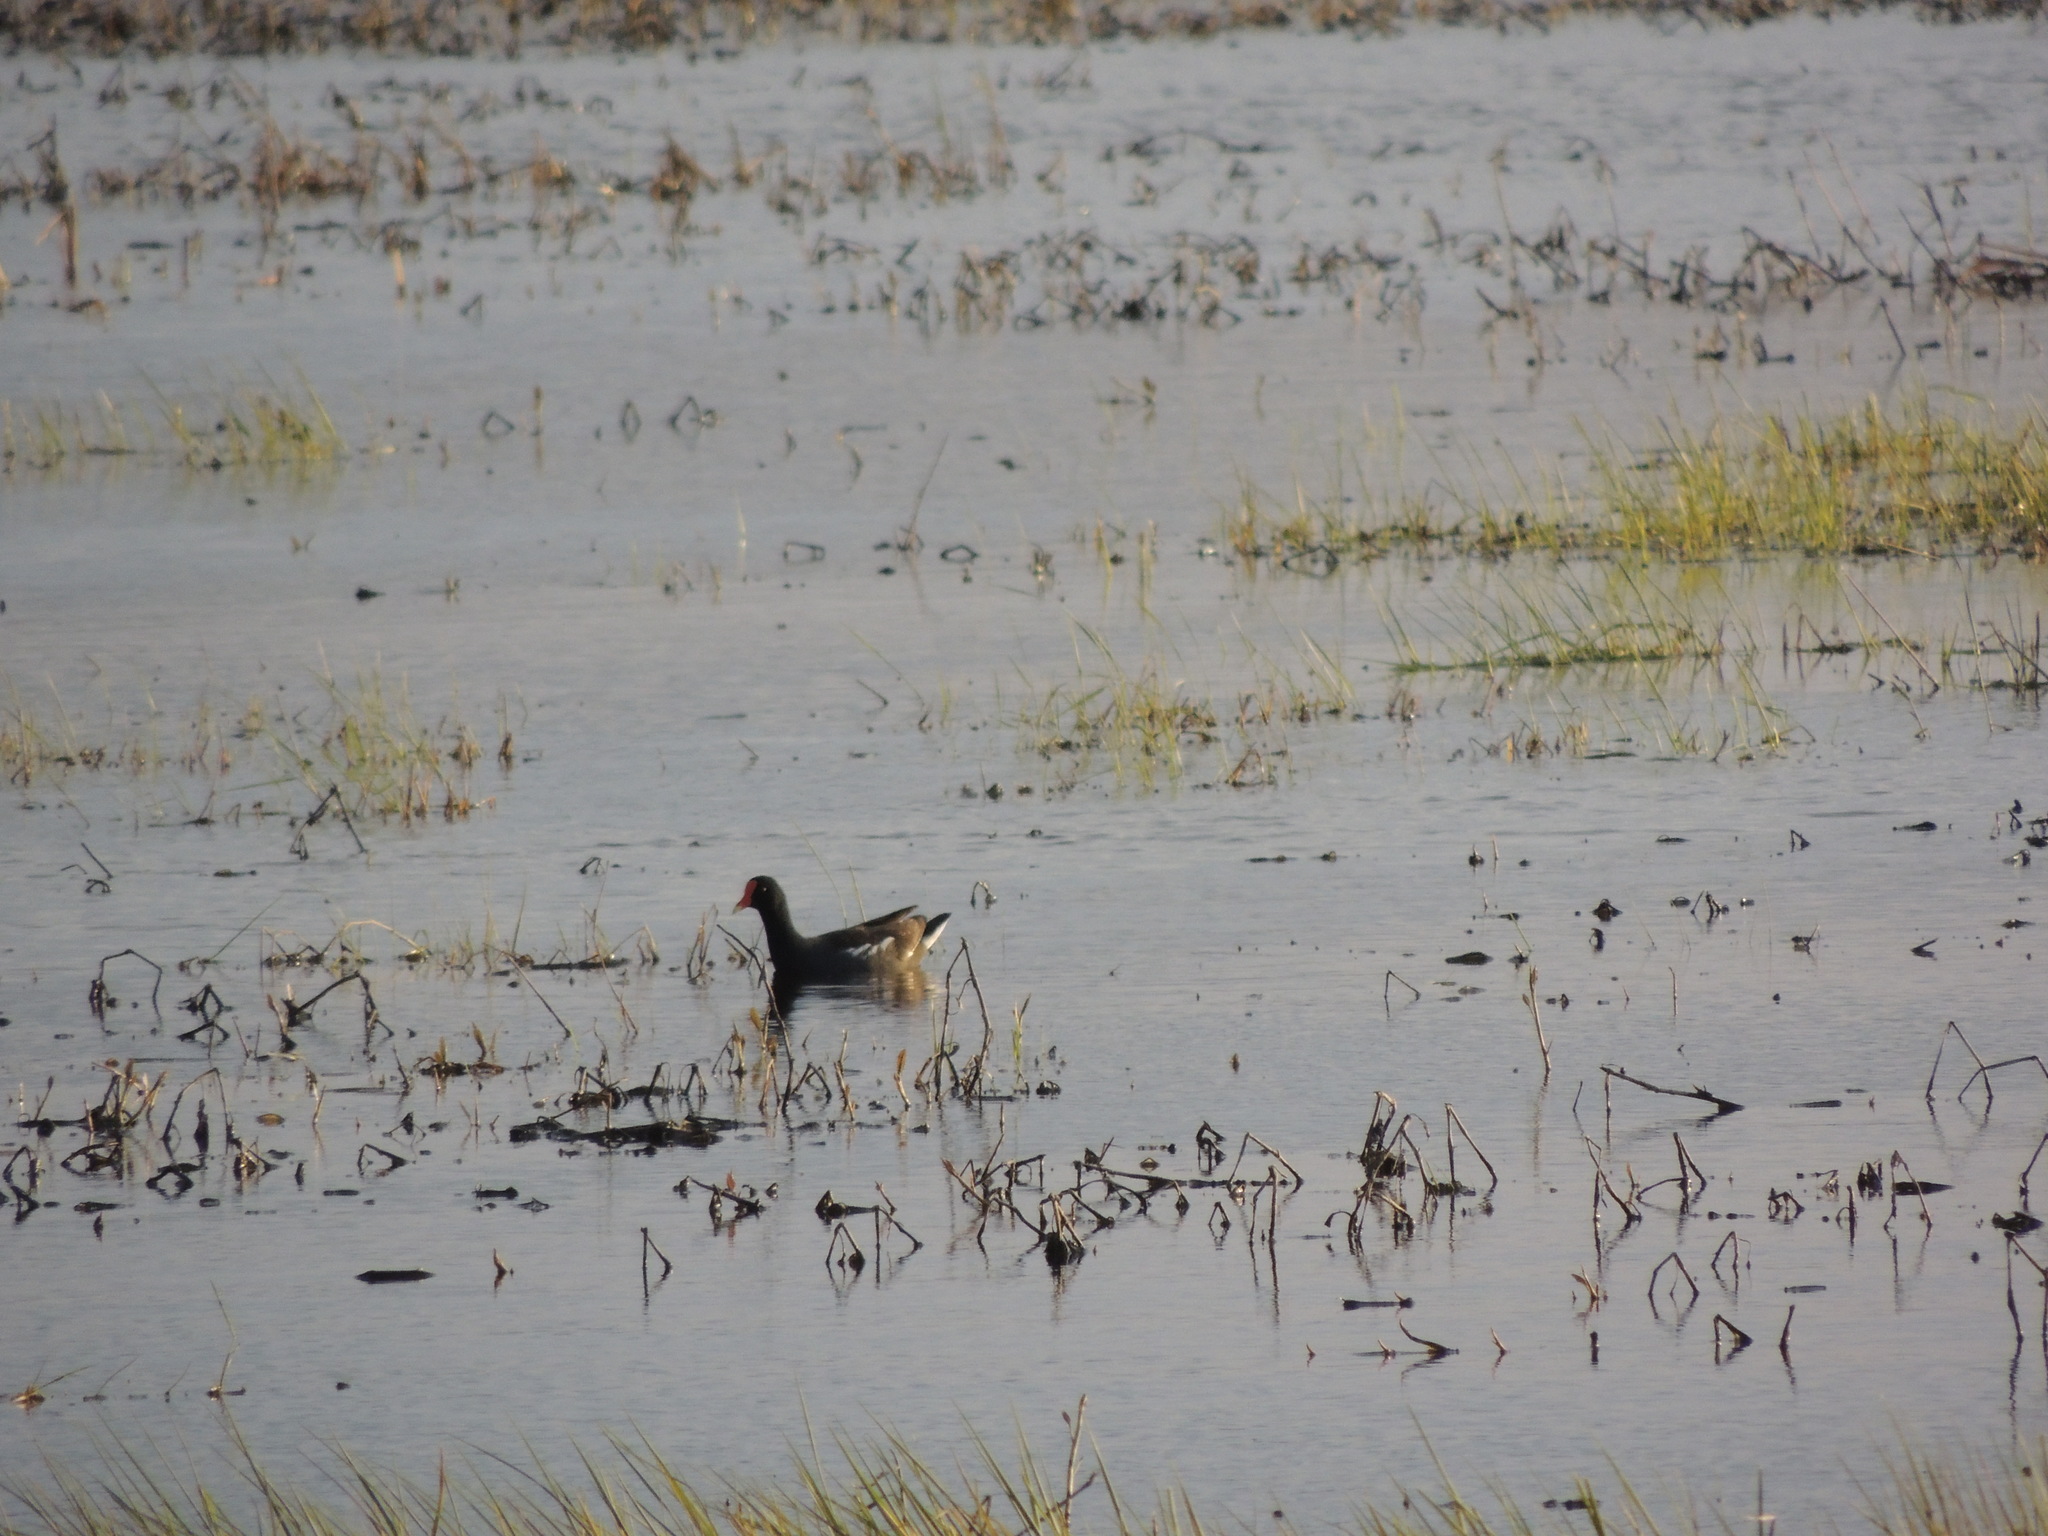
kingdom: Animalia
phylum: Chordata
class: Aves
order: Gruiformes
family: Rallidae
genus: Gallinula
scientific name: Gallinula chloropus
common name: Common moorhen
